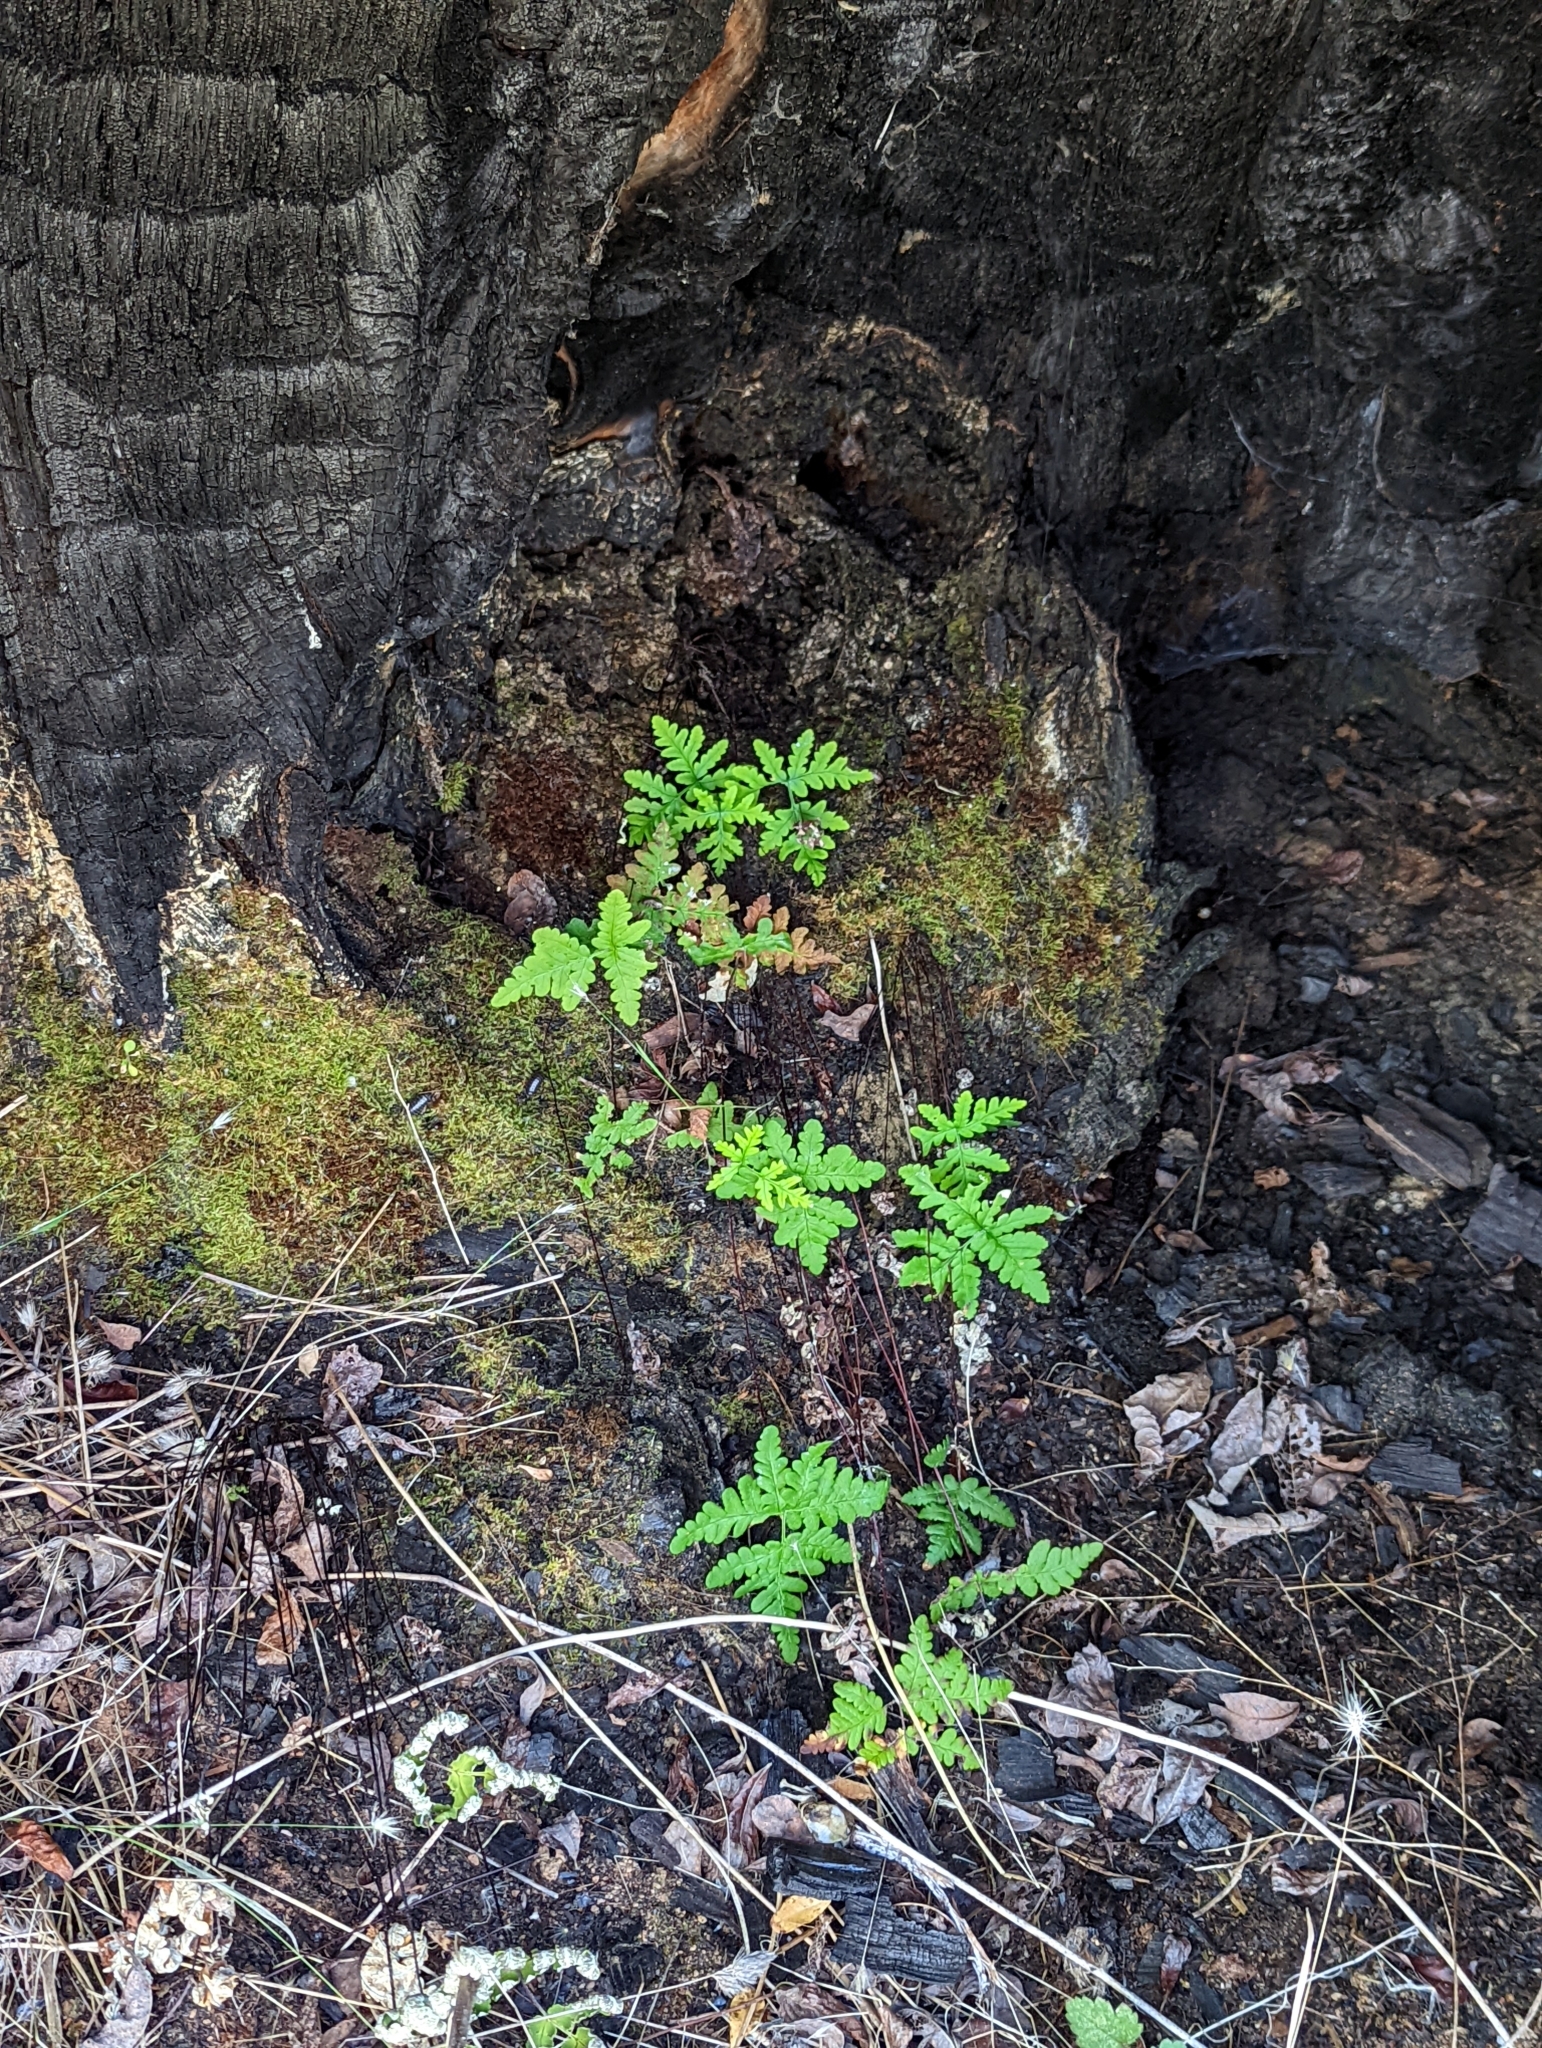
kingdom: Plantae
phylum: Tracheophyta
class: Polypodiopsida
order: Polypodiales
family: Pteridaceae
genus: Pentagramma
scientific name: Pentagramma triangularis
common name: Gold fern
